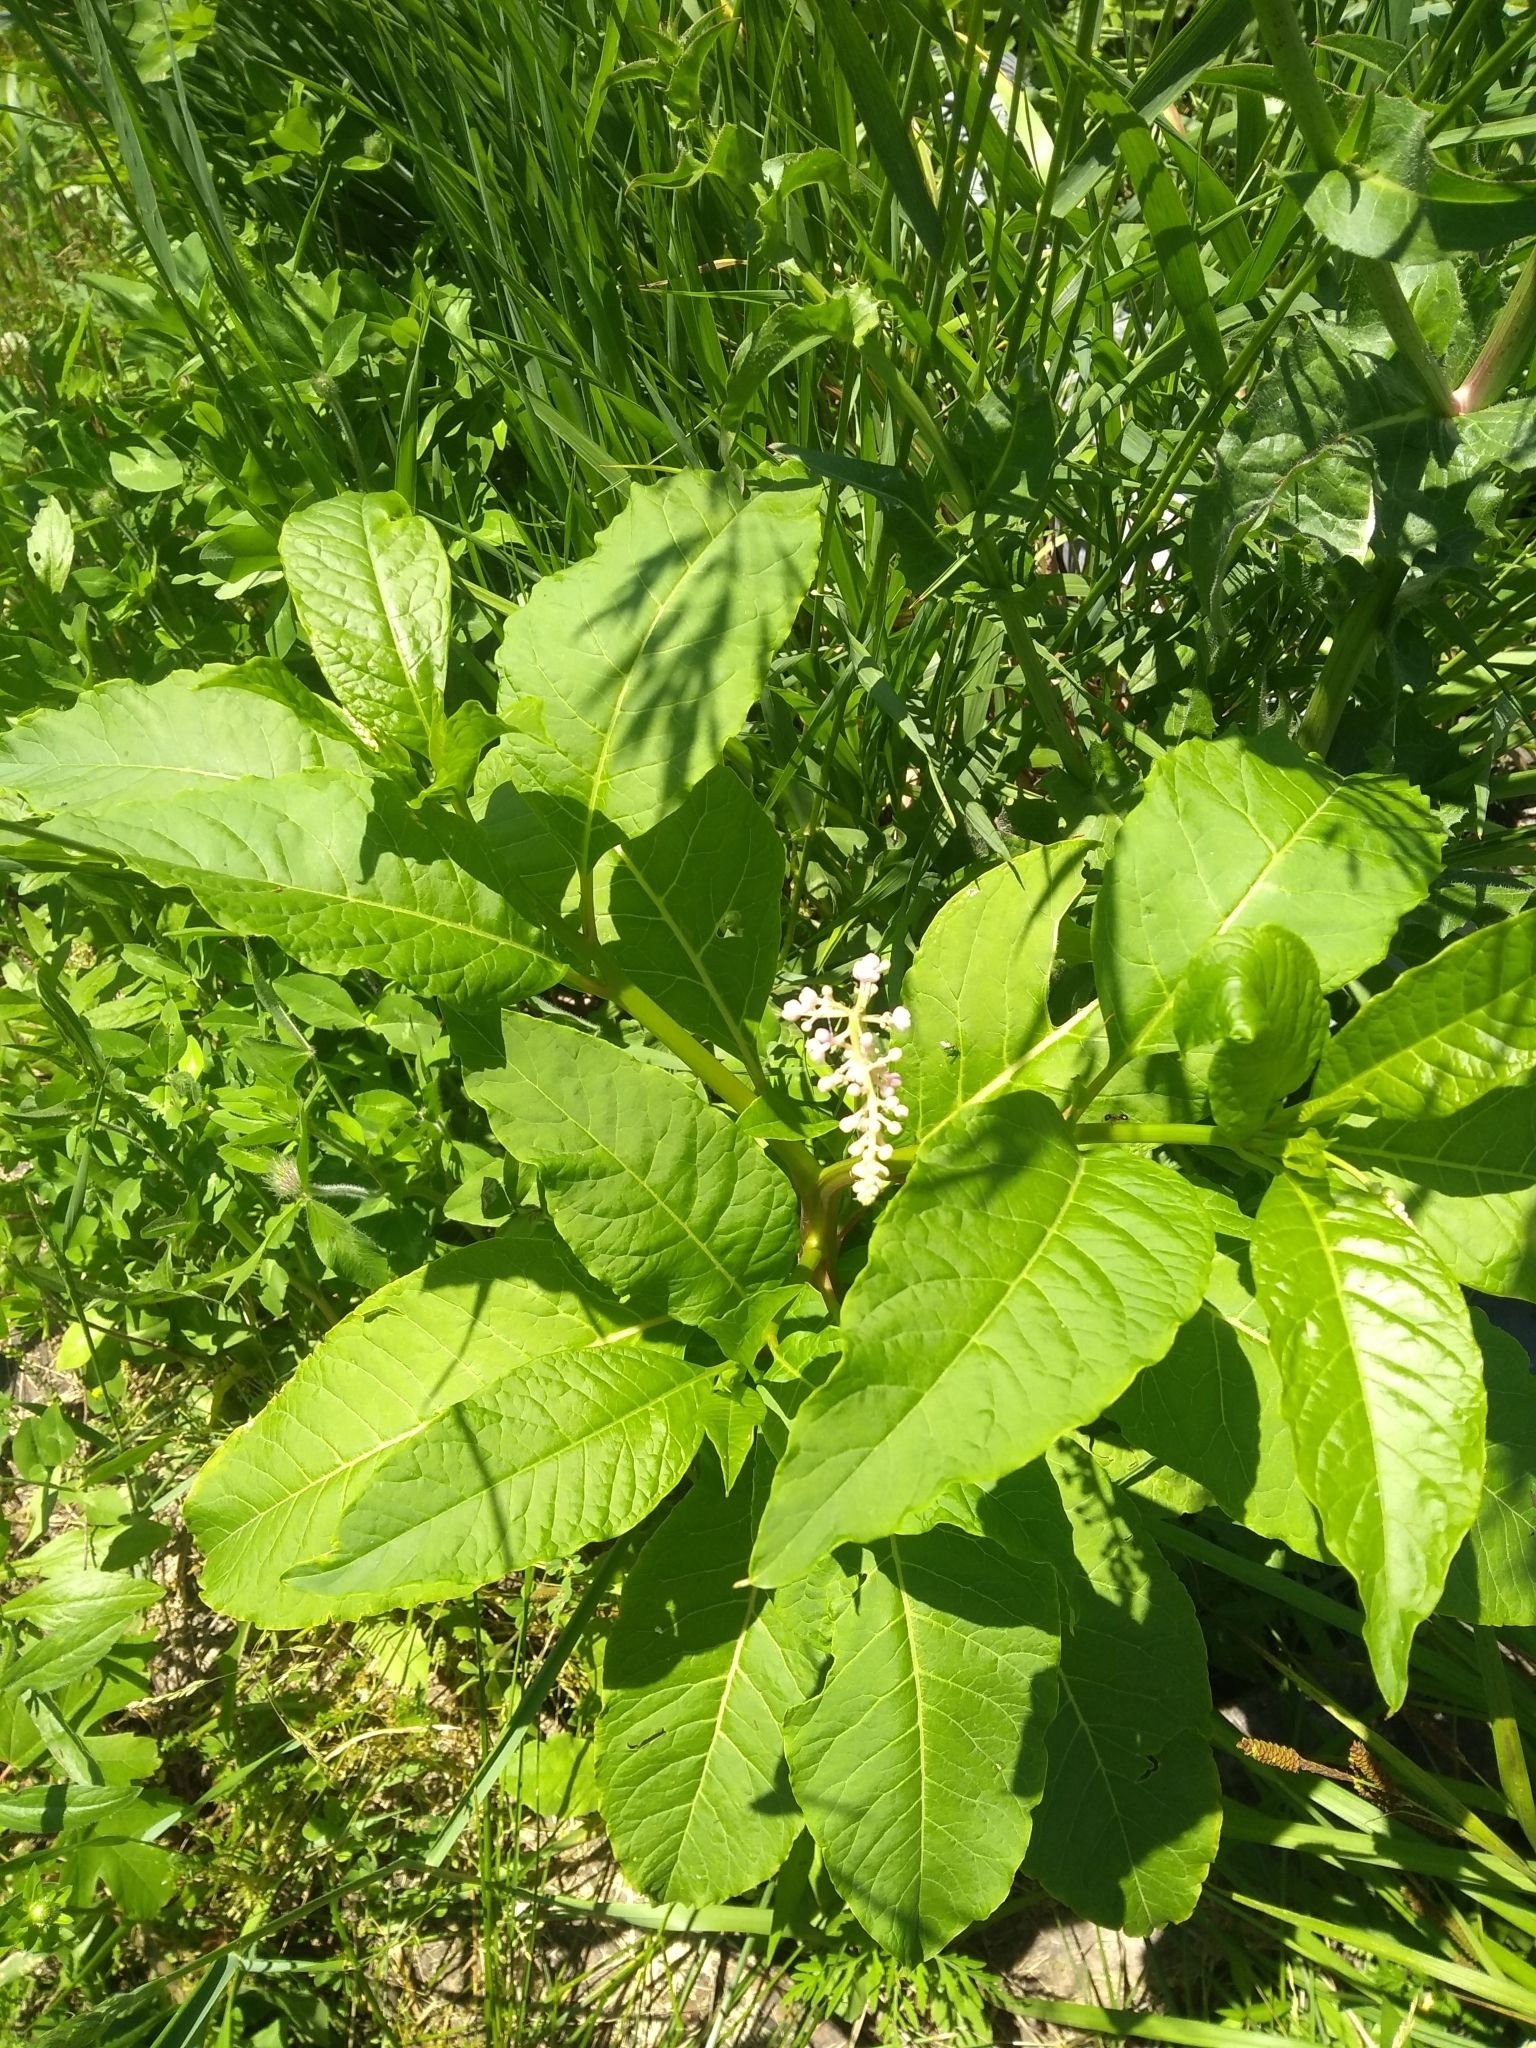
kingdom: Plantae
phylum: Tracheophyta
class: Magnoliopsida
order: Caryophyllales
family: Phytolaccaceae
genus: Phytolacca
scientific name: Phytolacca americana
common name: American pokeweed
